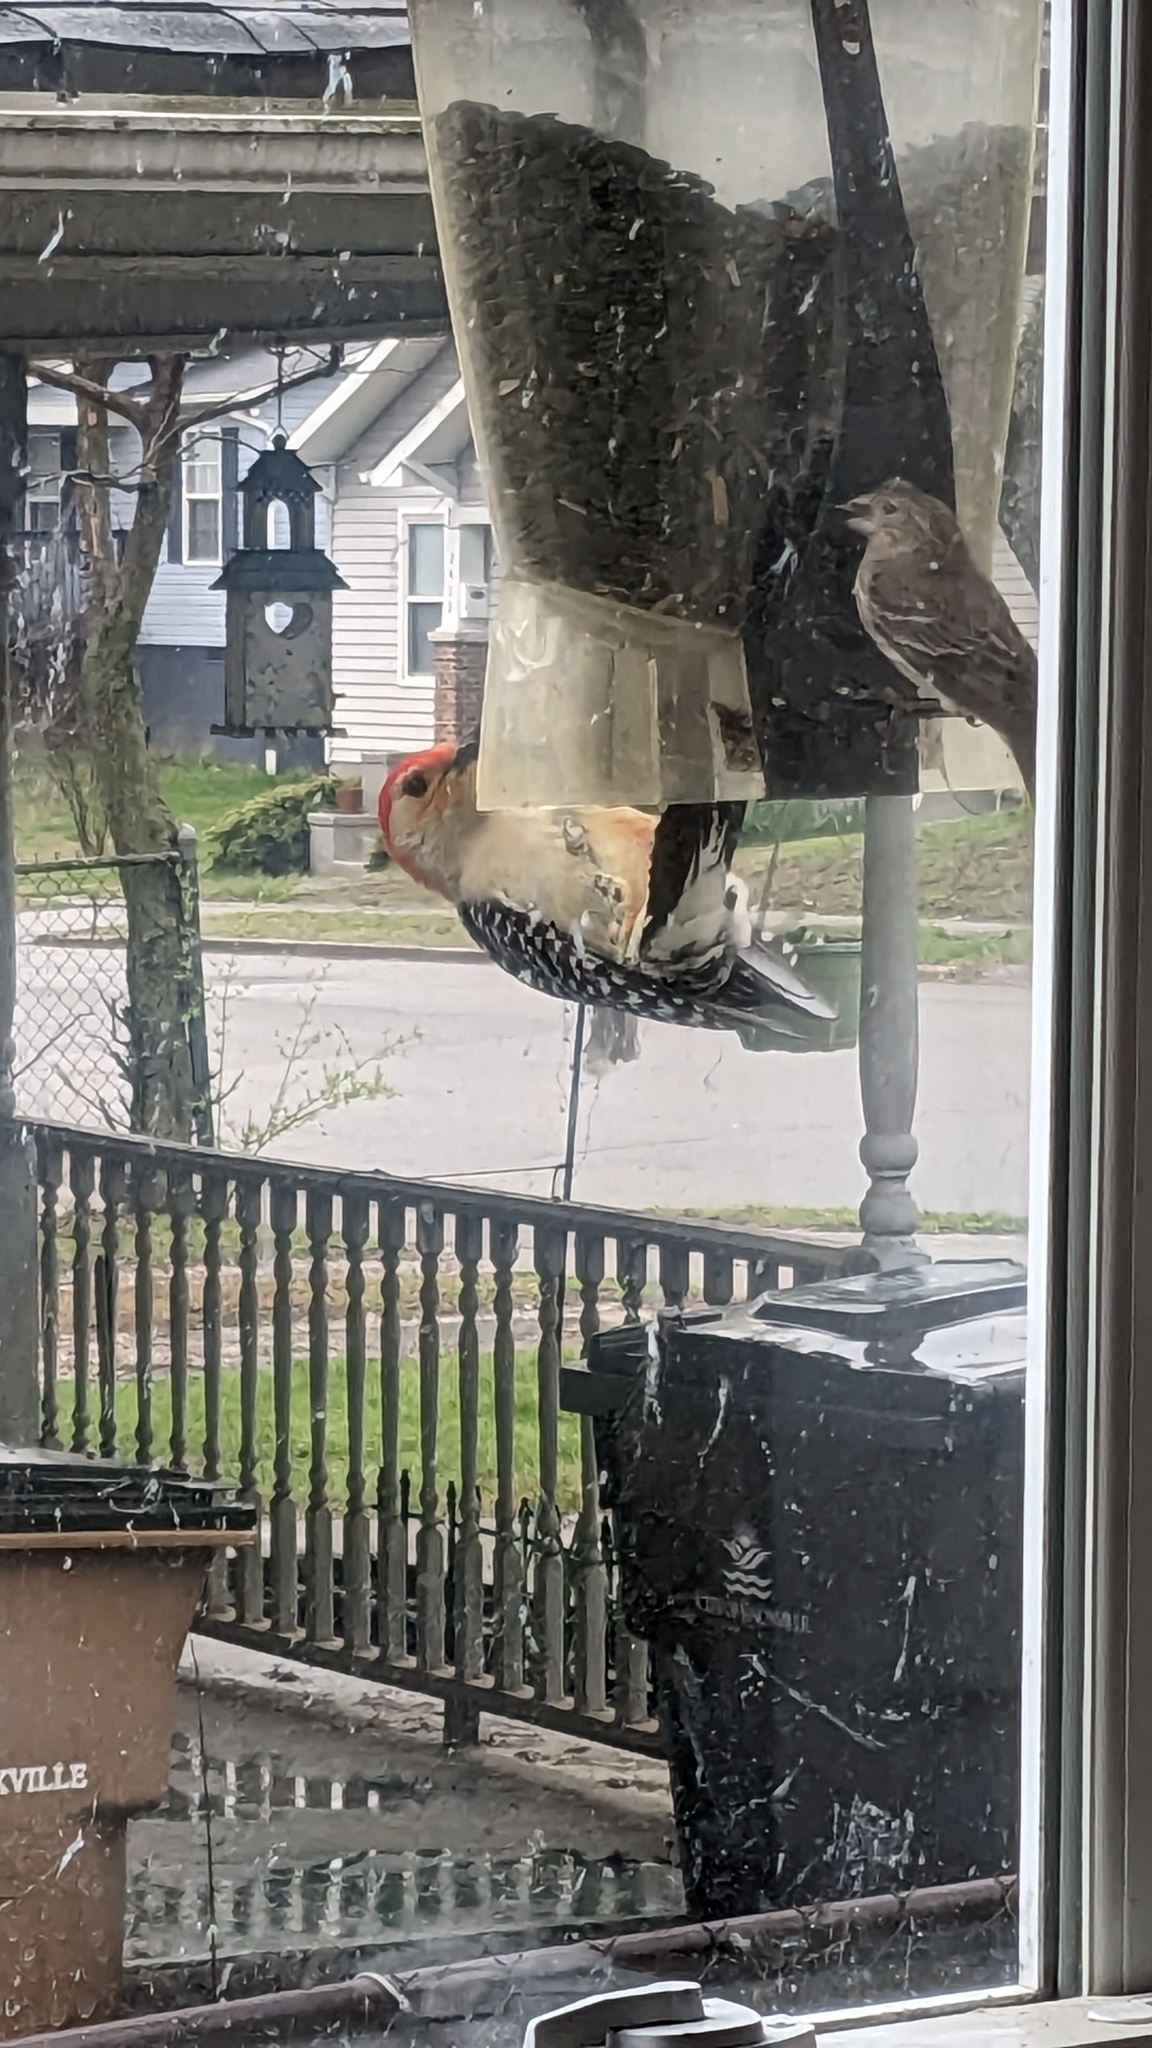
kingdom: Animalia
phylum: Chordata
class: Aves
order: Piciformes
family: Picidae
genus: Melanerpes
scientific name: Melanerpes carolinus
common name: Red-bellied woodpecker
